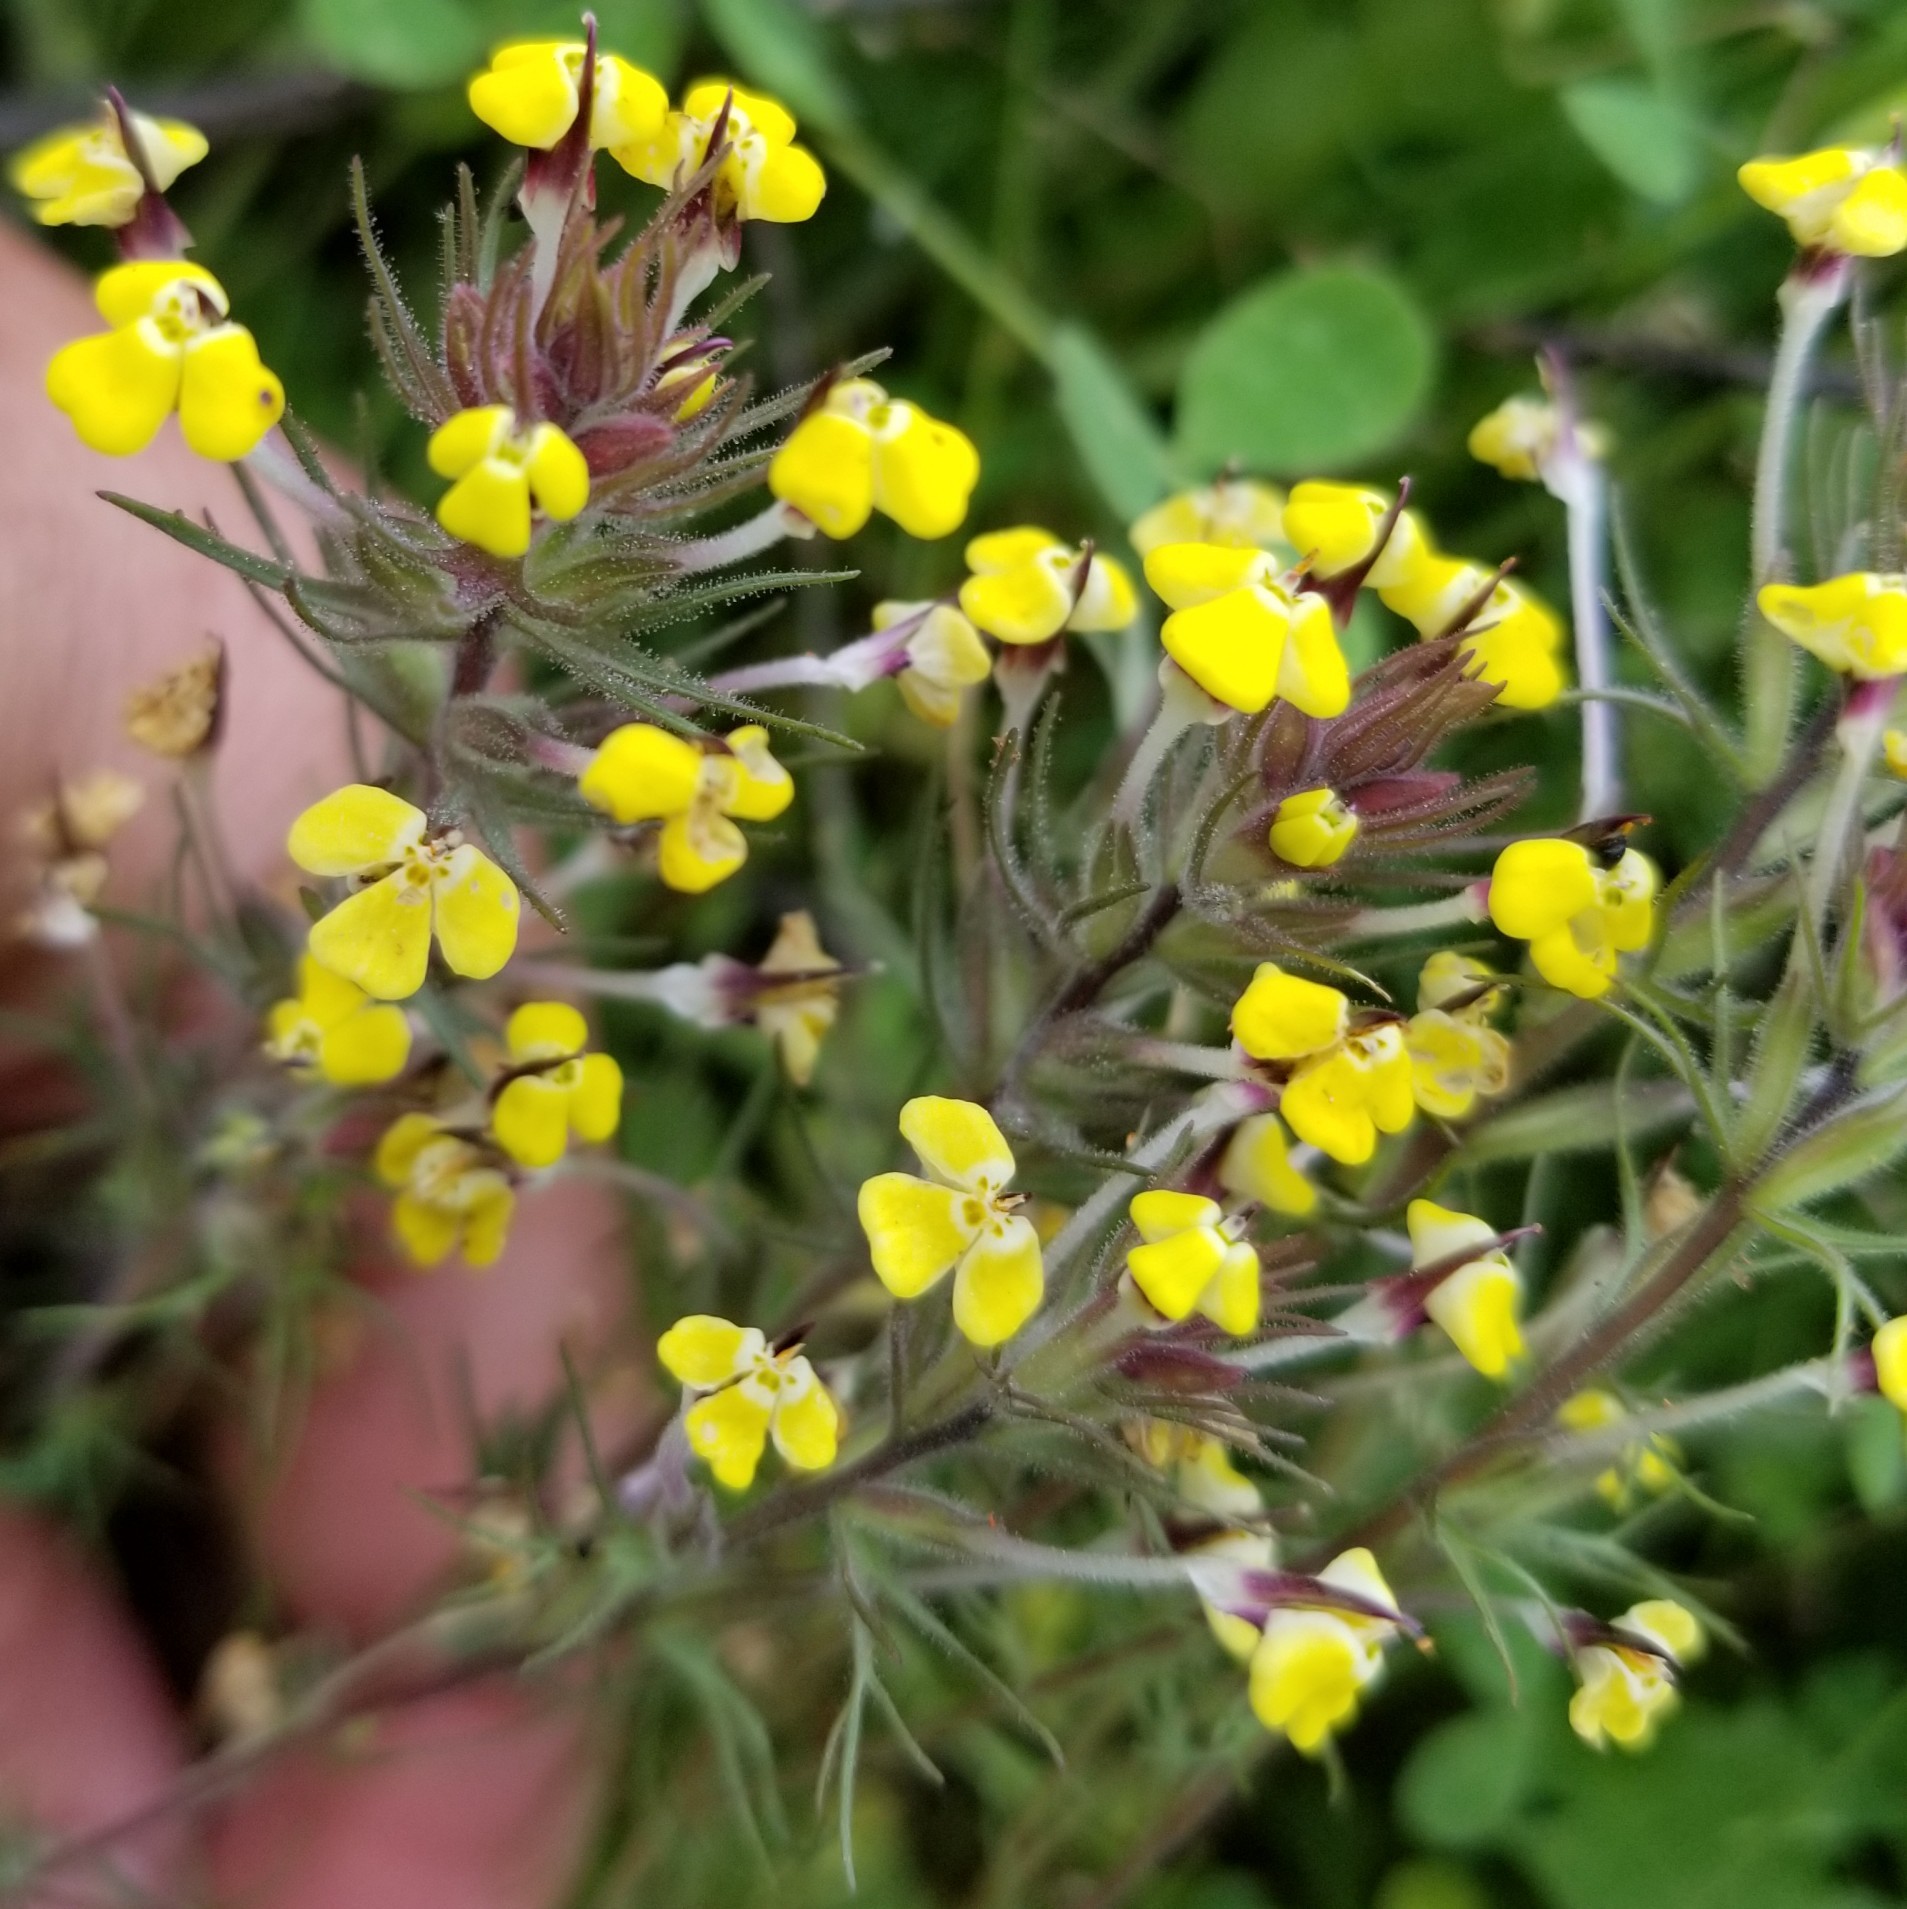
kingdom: Plantae
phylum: Tracheophyta
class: Magnoliopsida
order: Lamiales
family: Orobanchaceae
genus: Triphysaria
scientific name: Triphysaria eriantha
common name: Johnny-tuck
